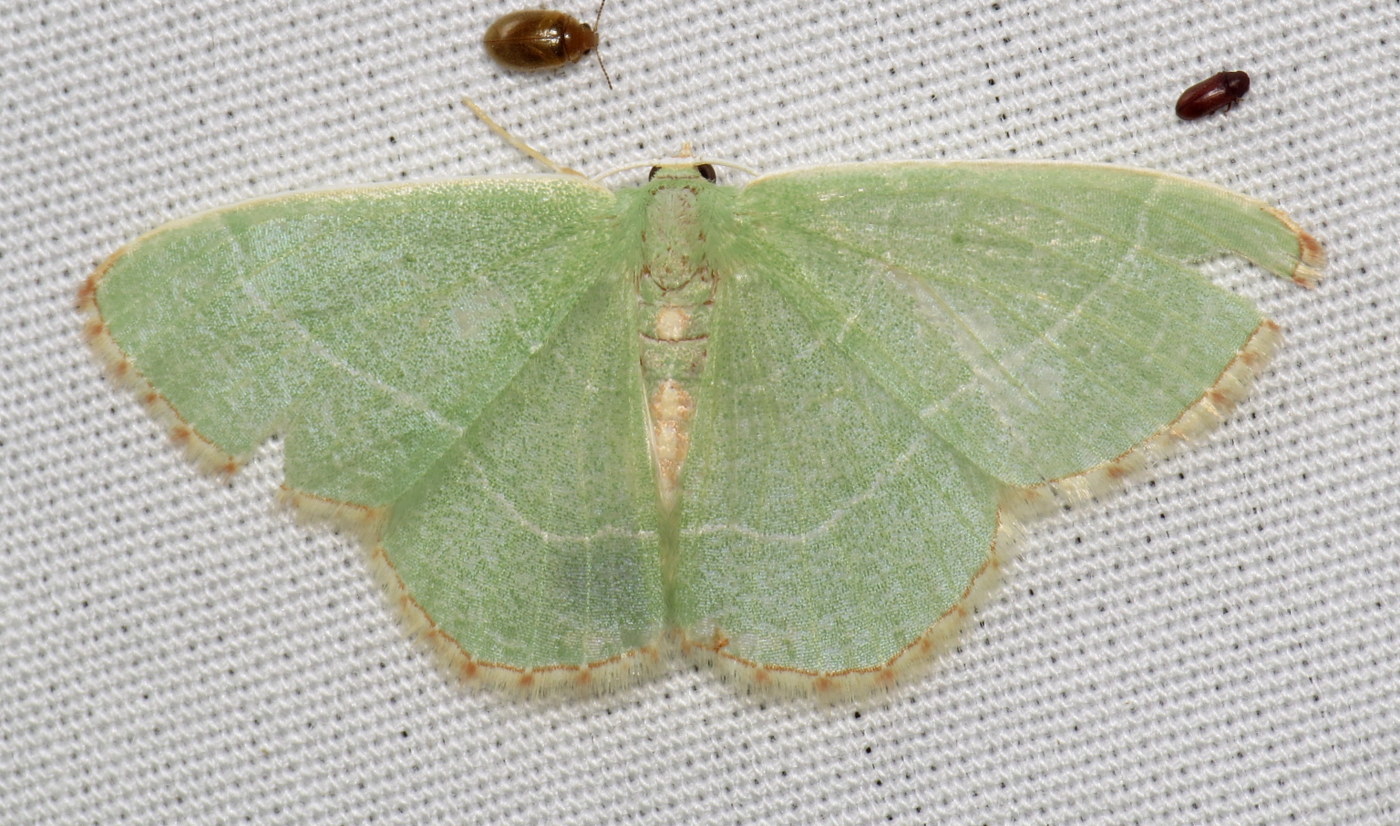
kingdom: Animalia
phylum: Arthropoda
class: Insecta
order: Lepidoptera
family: Geometridae
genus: Nemoria
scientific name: Nemoria bistriaria
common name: Red-fringed emerald
